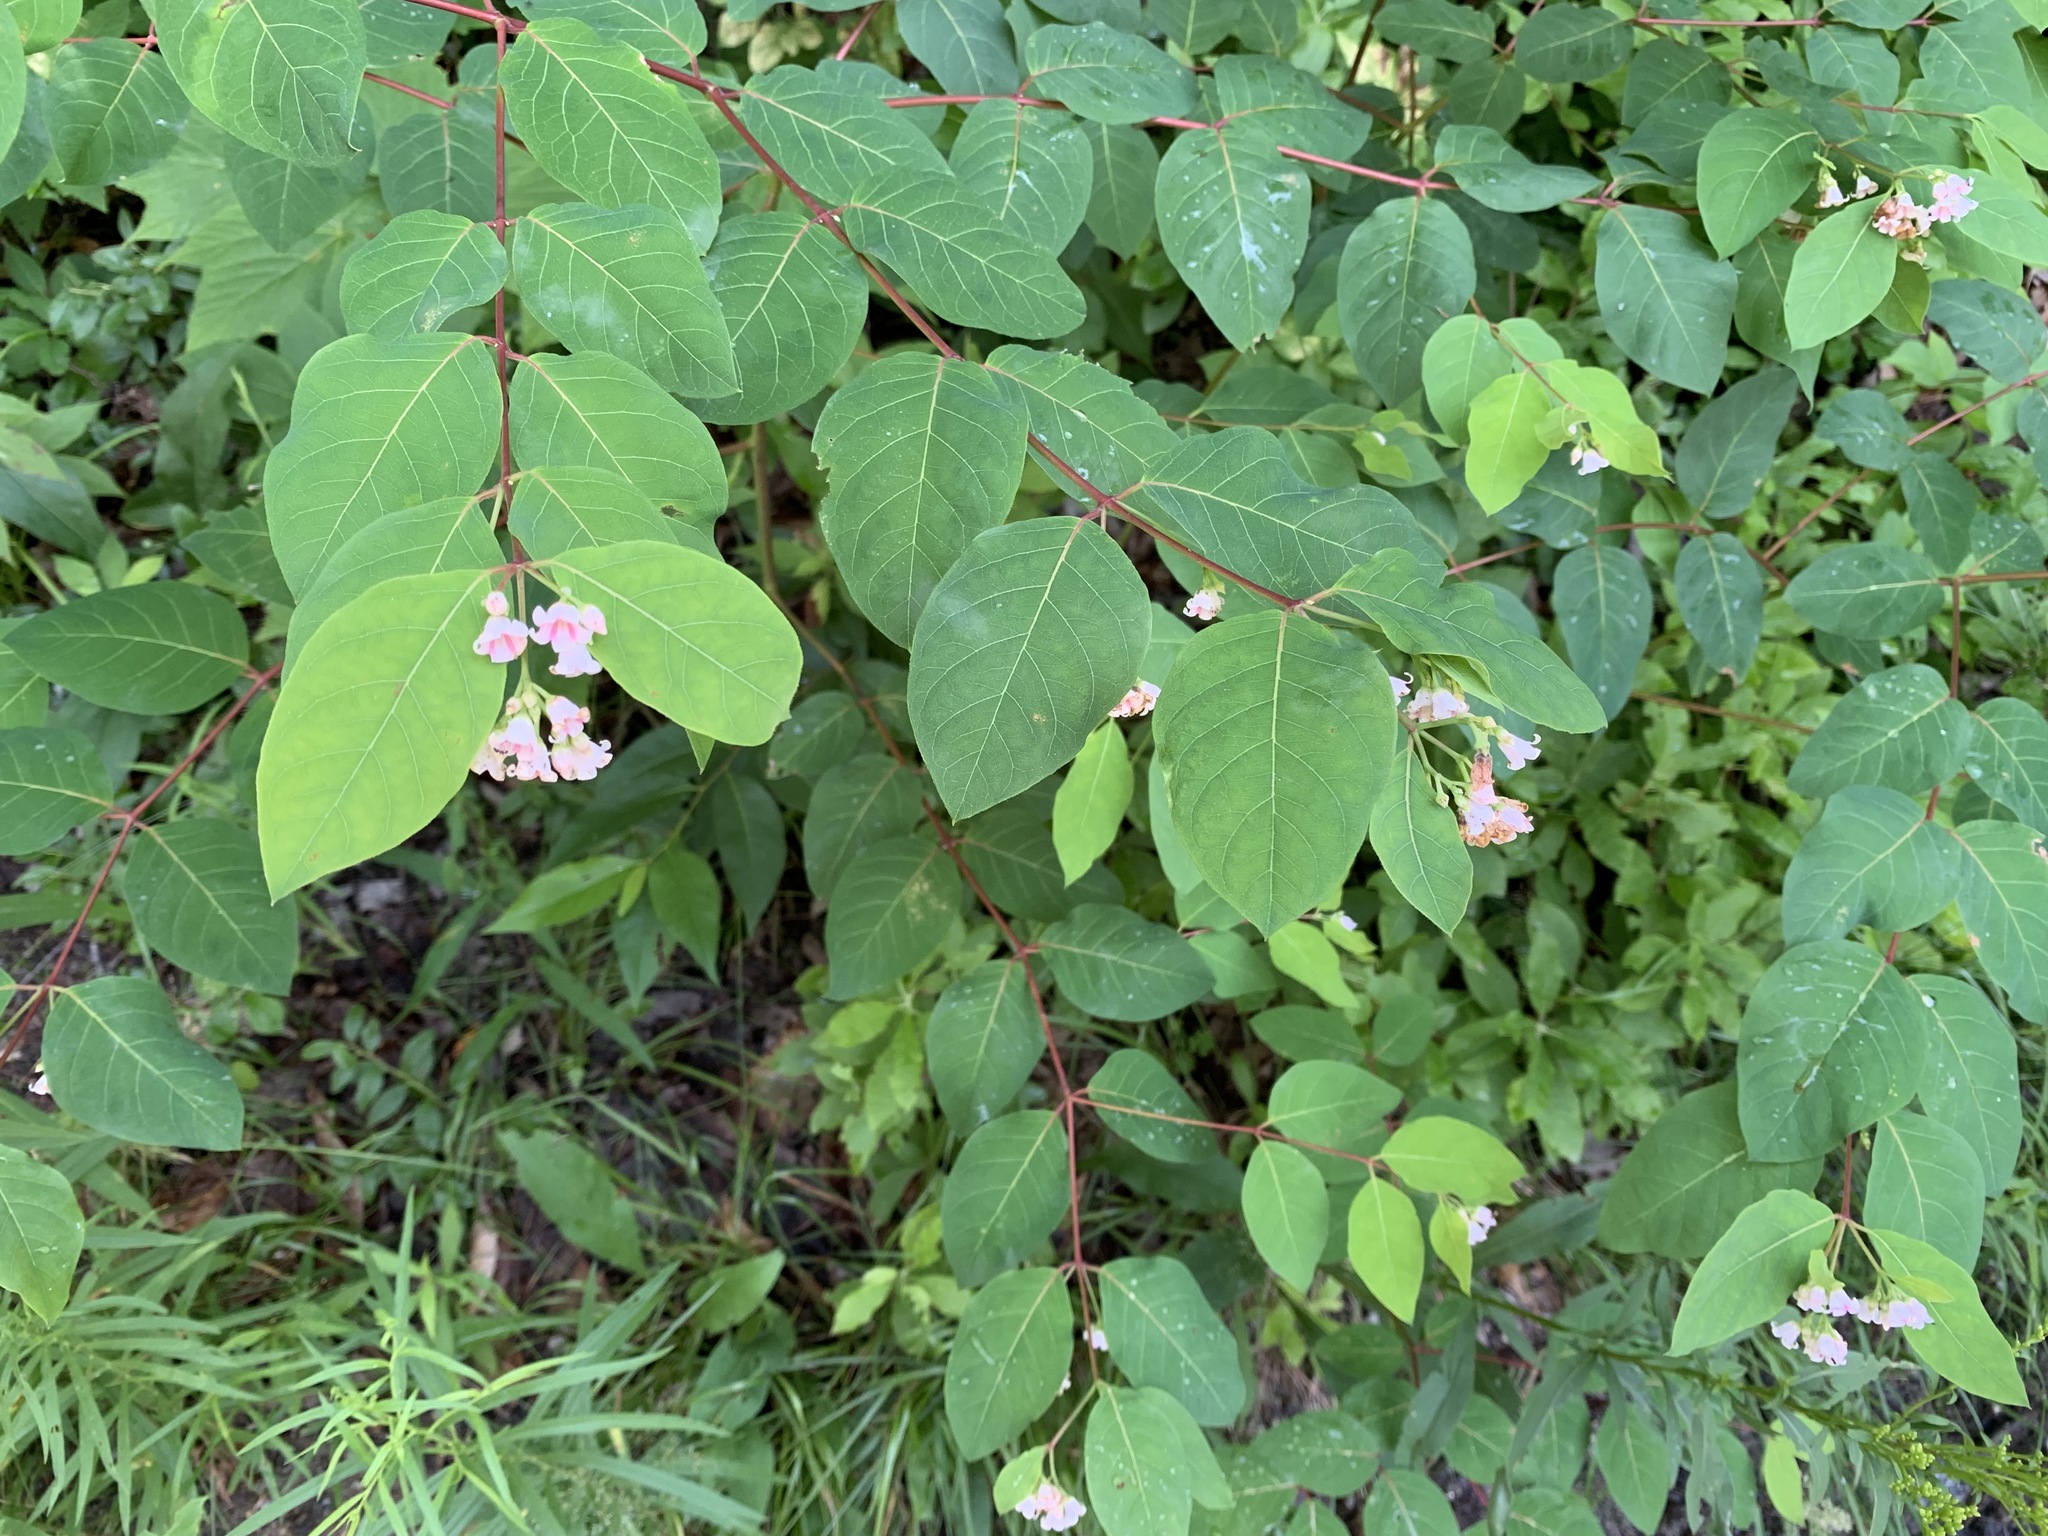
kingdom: Plantae
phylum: Tracheophyta
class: Magnoliopsida
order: Gentianales
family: Apocynaceae
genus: Apocynum
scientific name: Apocynum androsaemifolium
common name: Spreading dogbane
